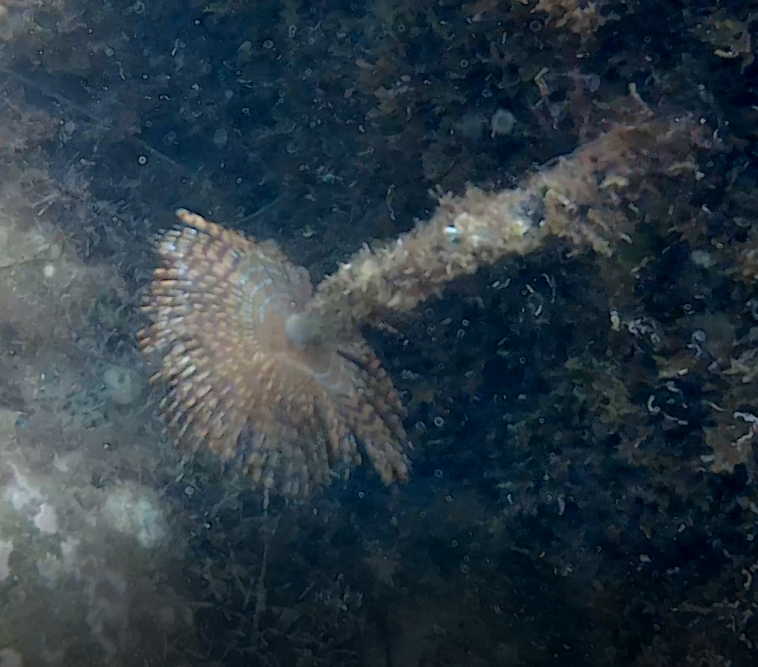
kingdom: Animalia
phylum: Annelida
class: Polychaeta
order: Sabellida
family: Sabellidae
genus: Sabella
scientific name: Sabella spallanzanii
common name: Feather duster worm
